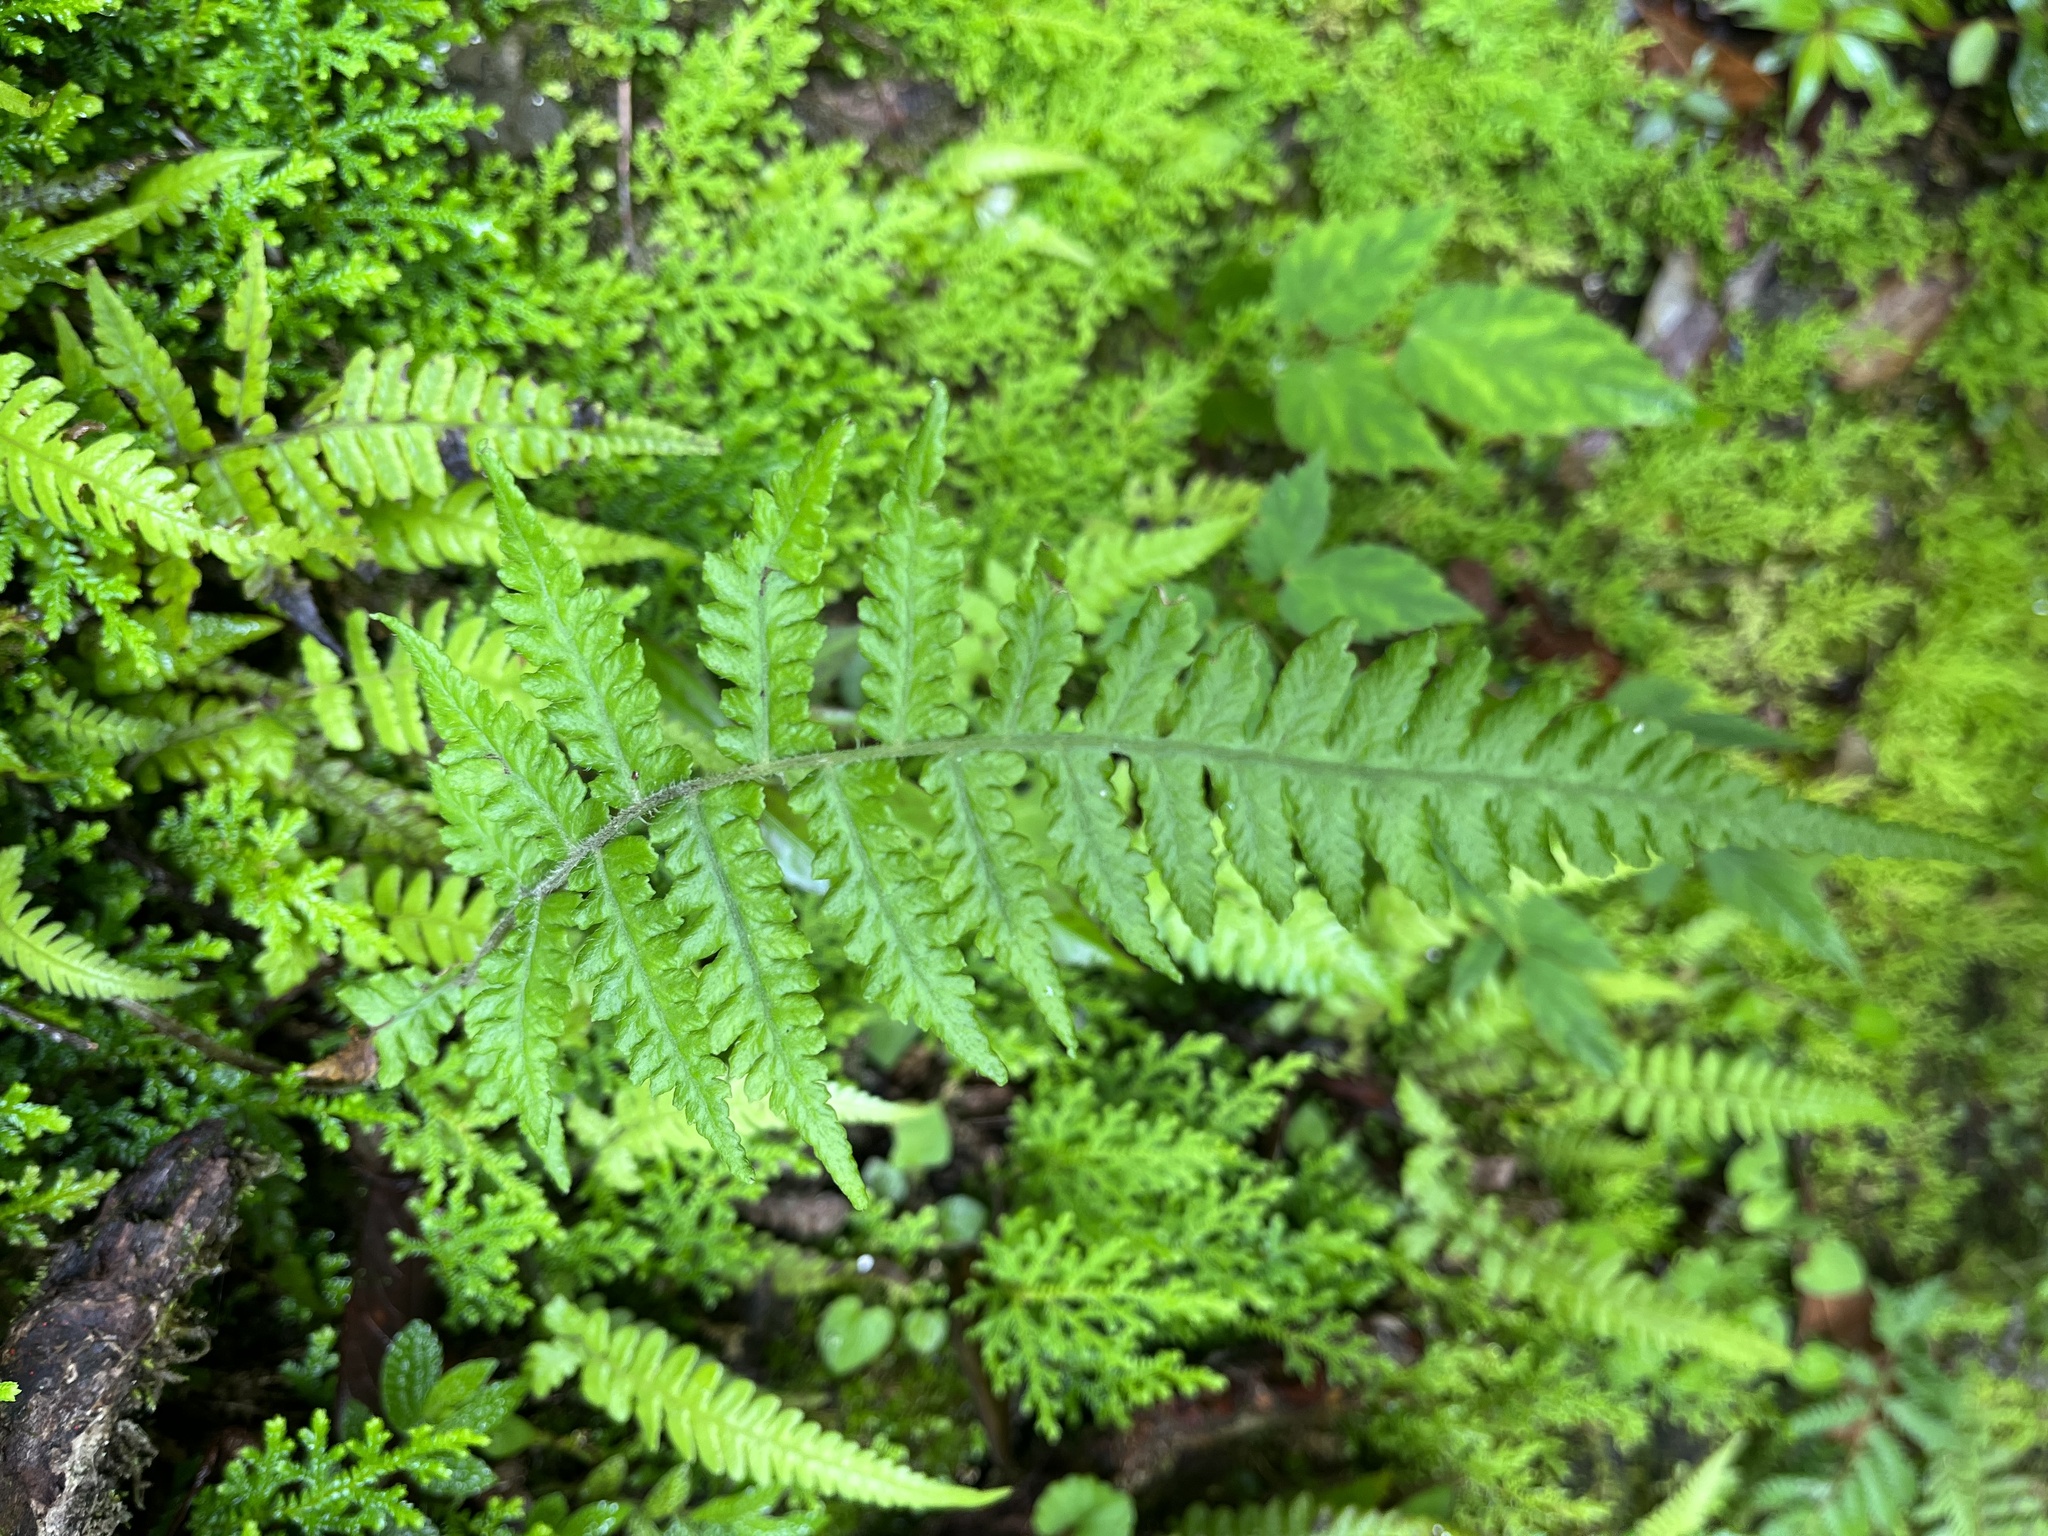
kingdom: Plantae
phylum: Tracheophyta
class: Polypodiopsida
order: Polypodiales
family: Athyriaceae
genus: Deparia
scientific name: Deparia petersenii
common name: Japanese false spleenwort
